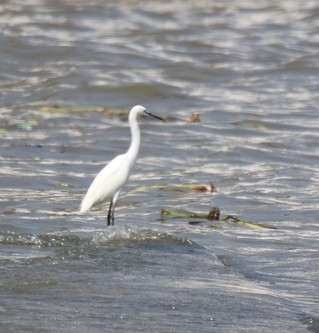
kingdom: Animalia
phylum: Chordata
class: Aves
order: Pelecaniformes
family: Ardeidae
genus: Egretta
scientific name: Egretta garzetta
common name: Little egret
